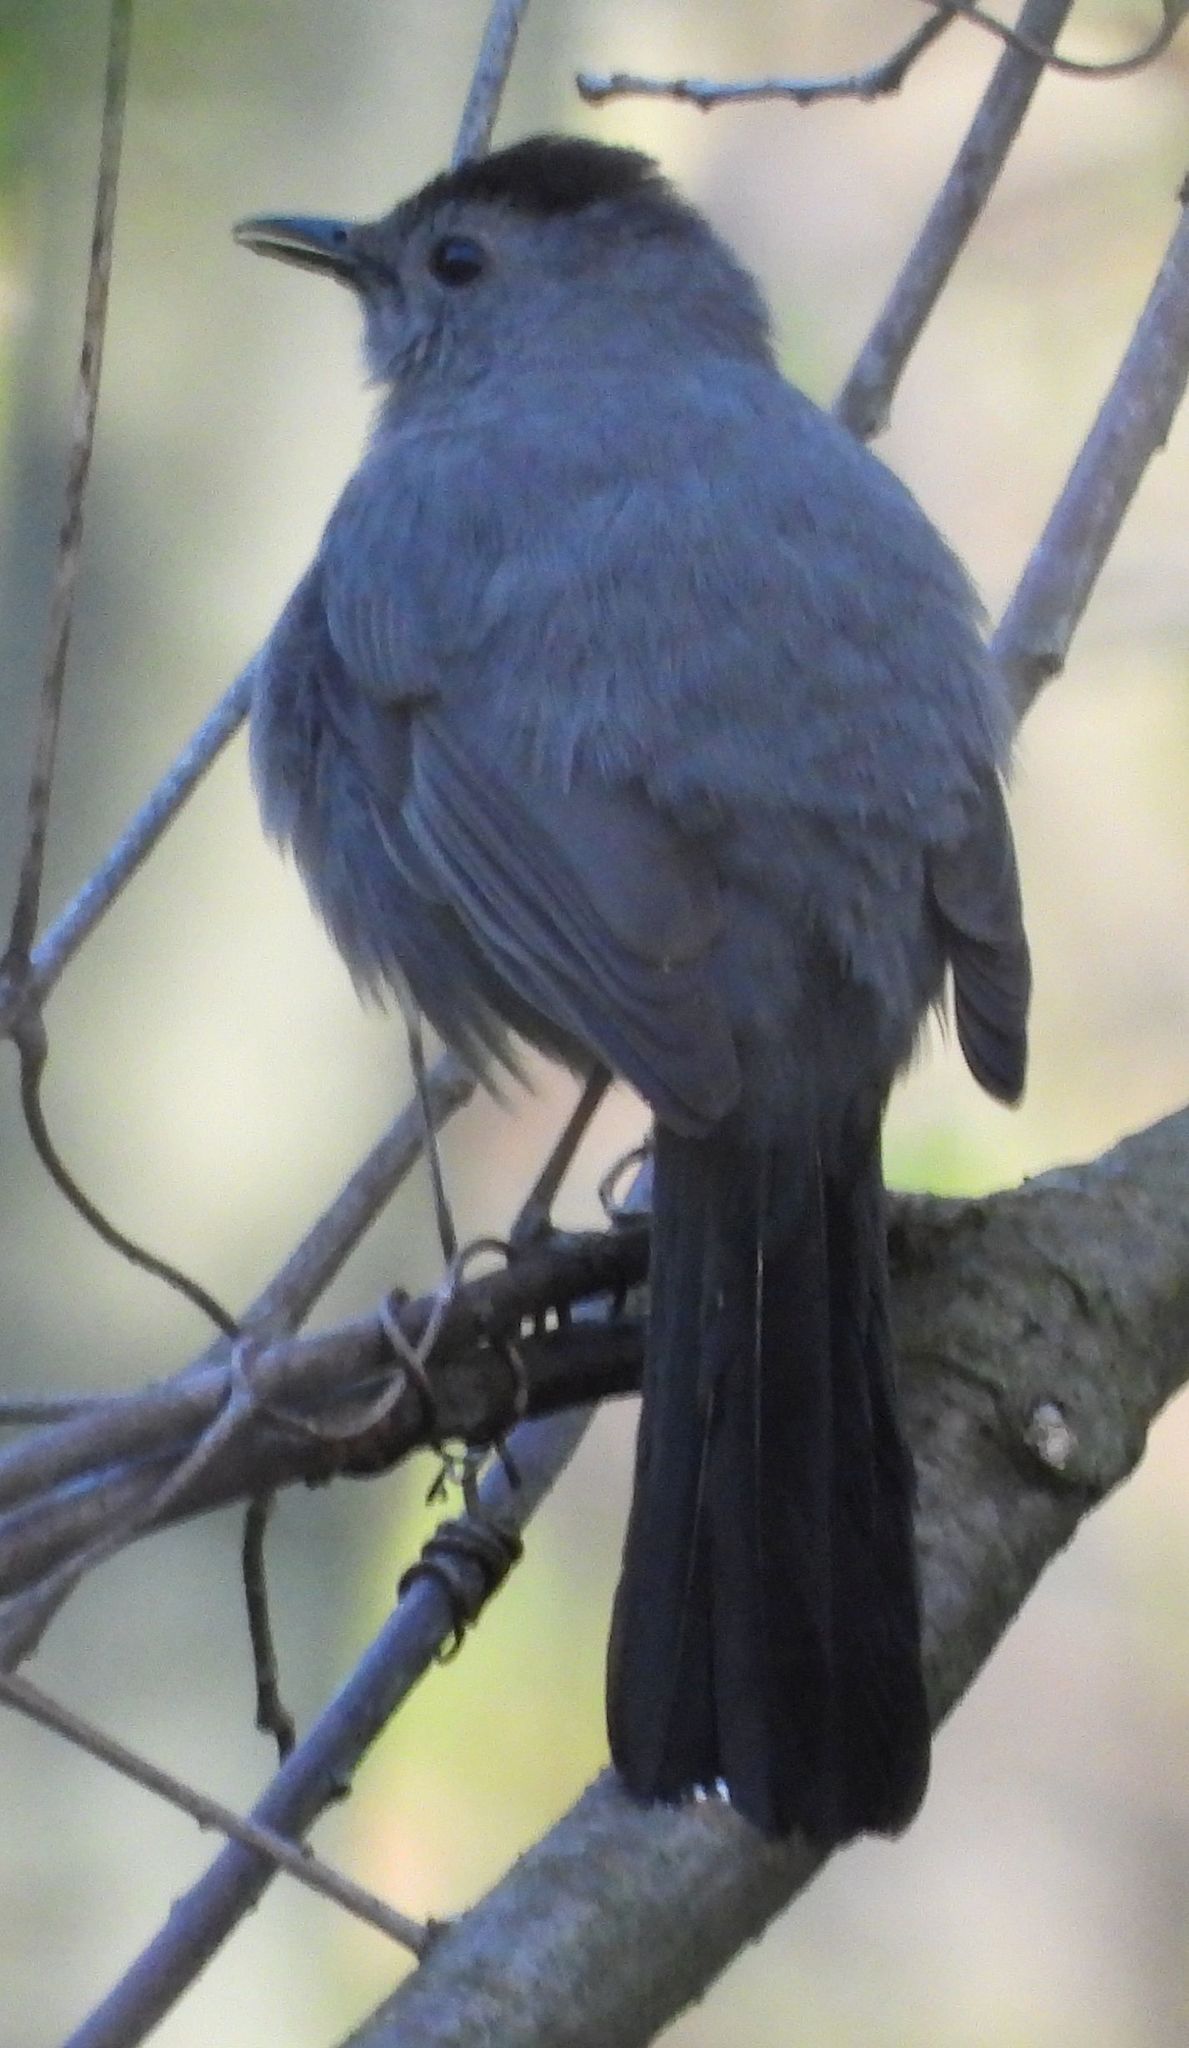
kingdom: Animalia
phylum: Chordata
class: Aves
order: Passeriformes
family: Mimidae
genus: Dumetella
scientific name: Dumetella carolinensis
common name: Gray catbird
